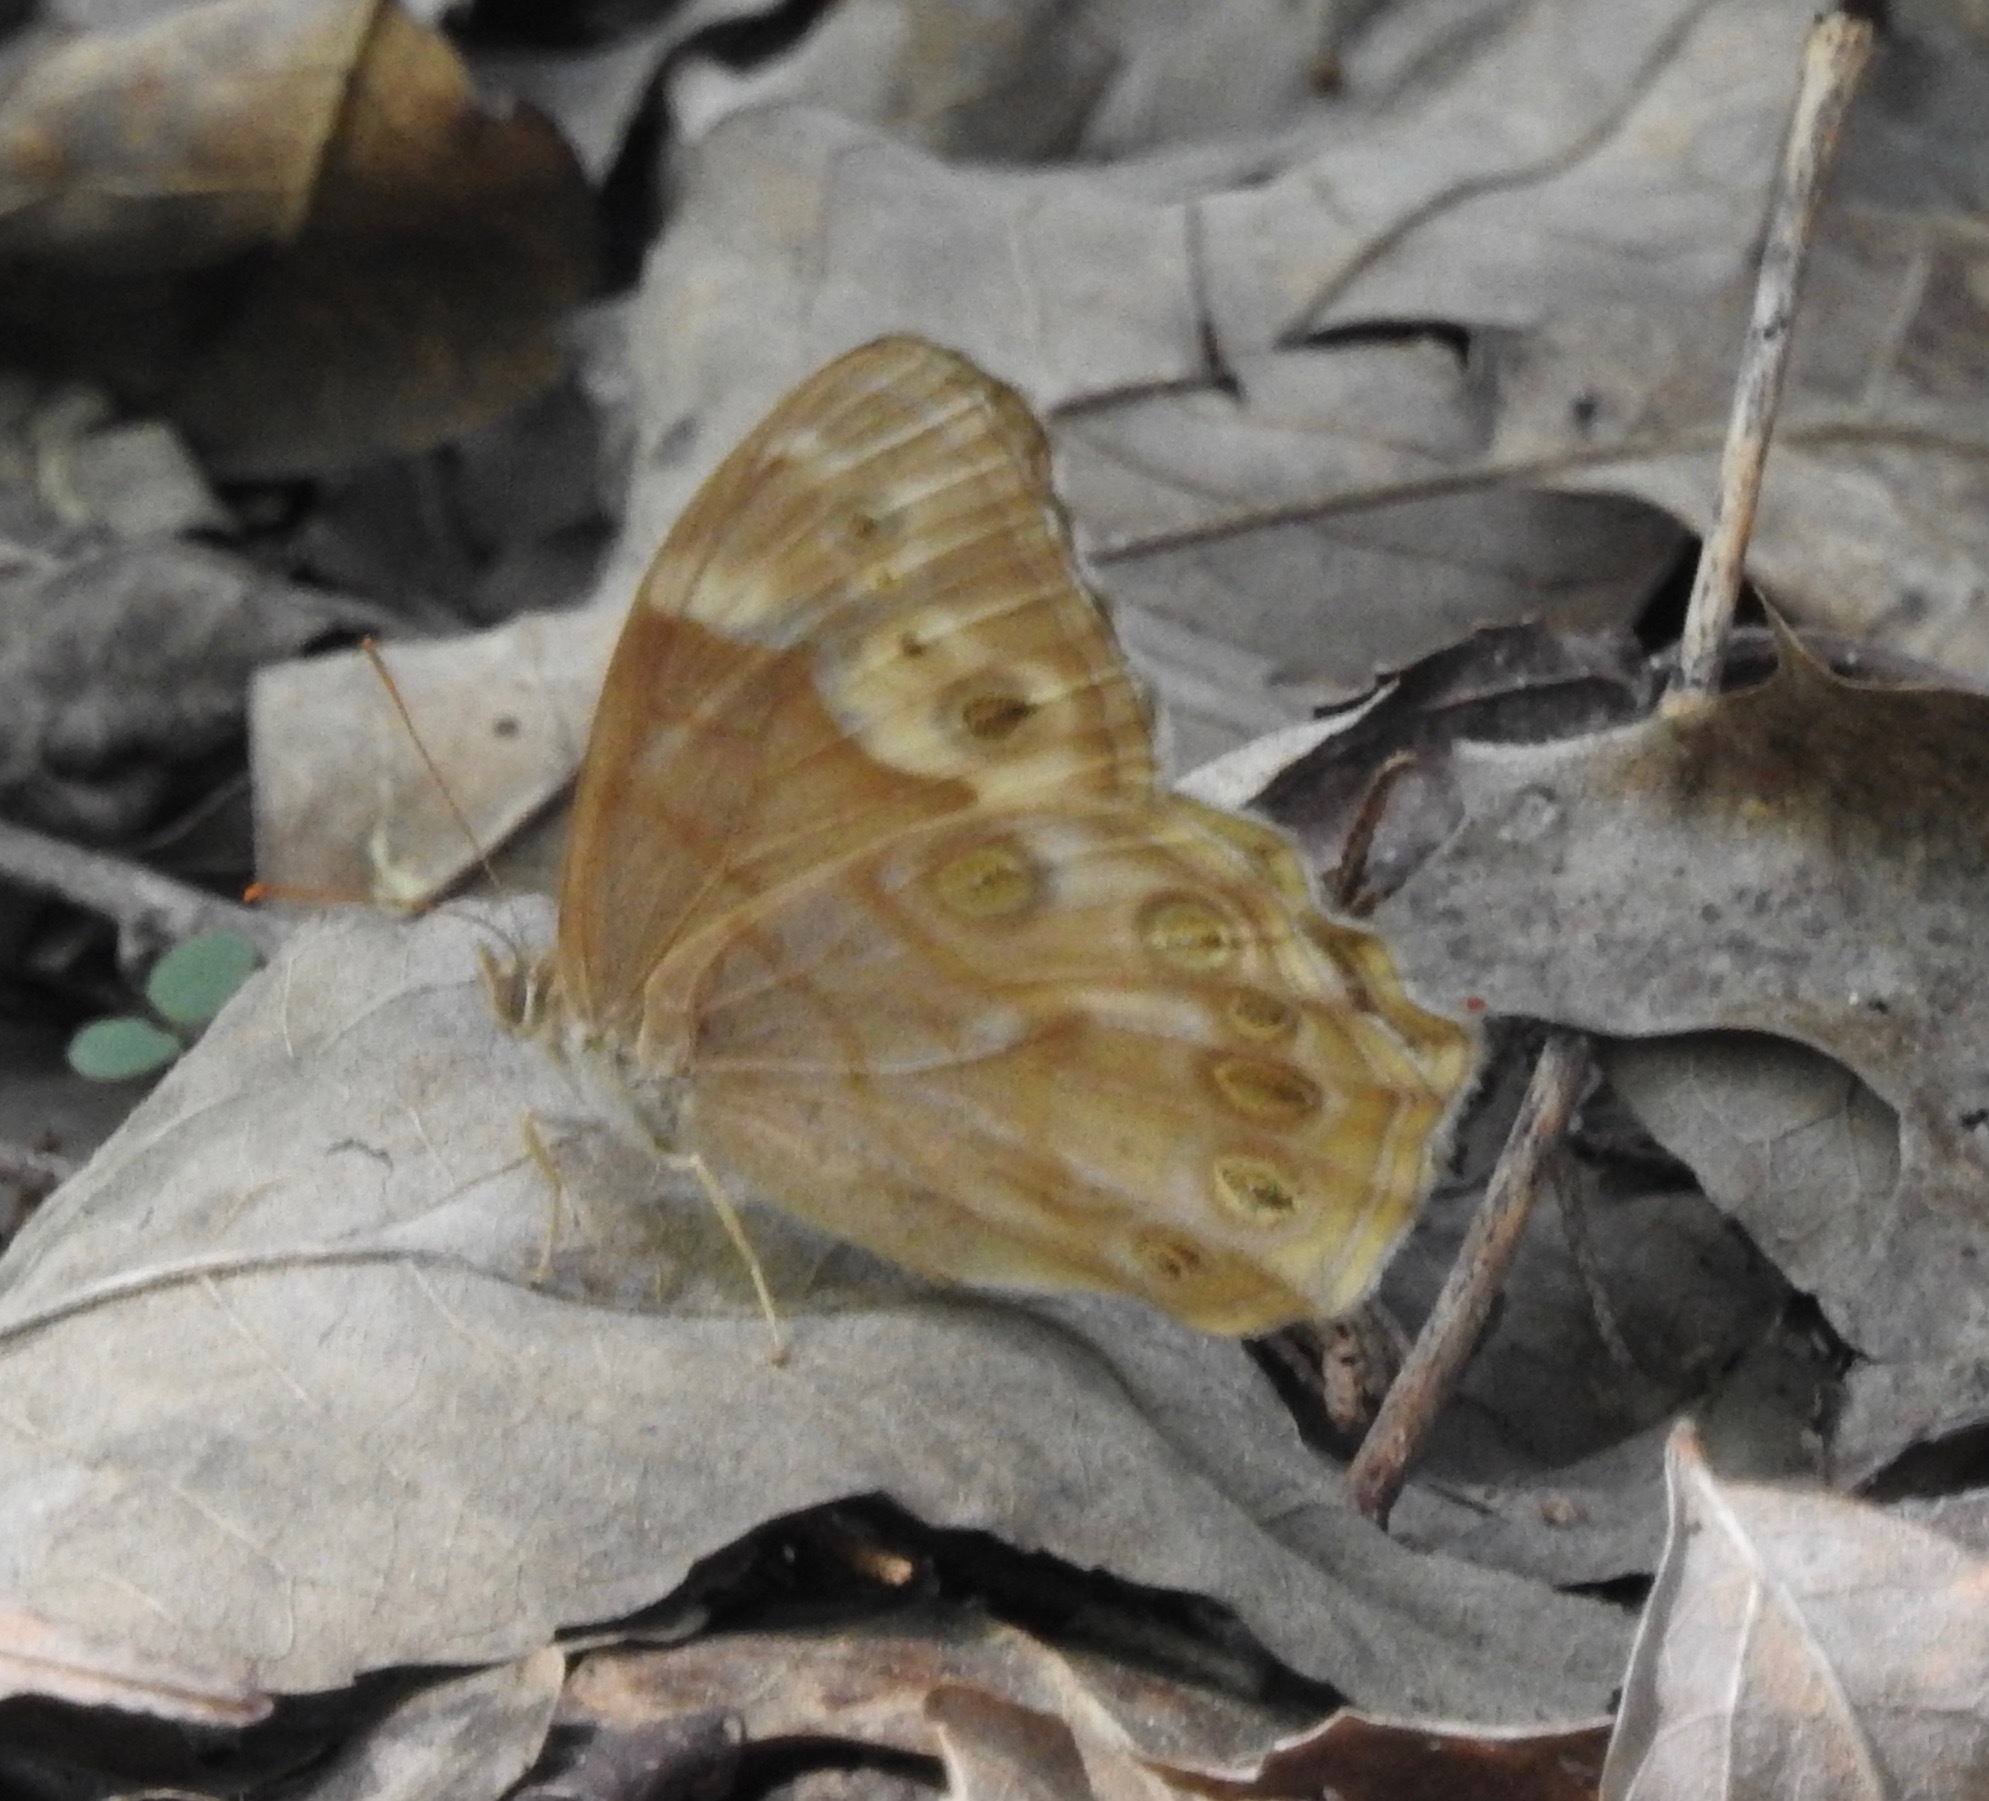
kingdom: Animalia
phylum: Arthropoda
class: Insecta
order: Lepidoptera
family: Nymphalidae
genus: Enodia
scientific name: Enodia portlandia
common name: Southern pearly-eye
